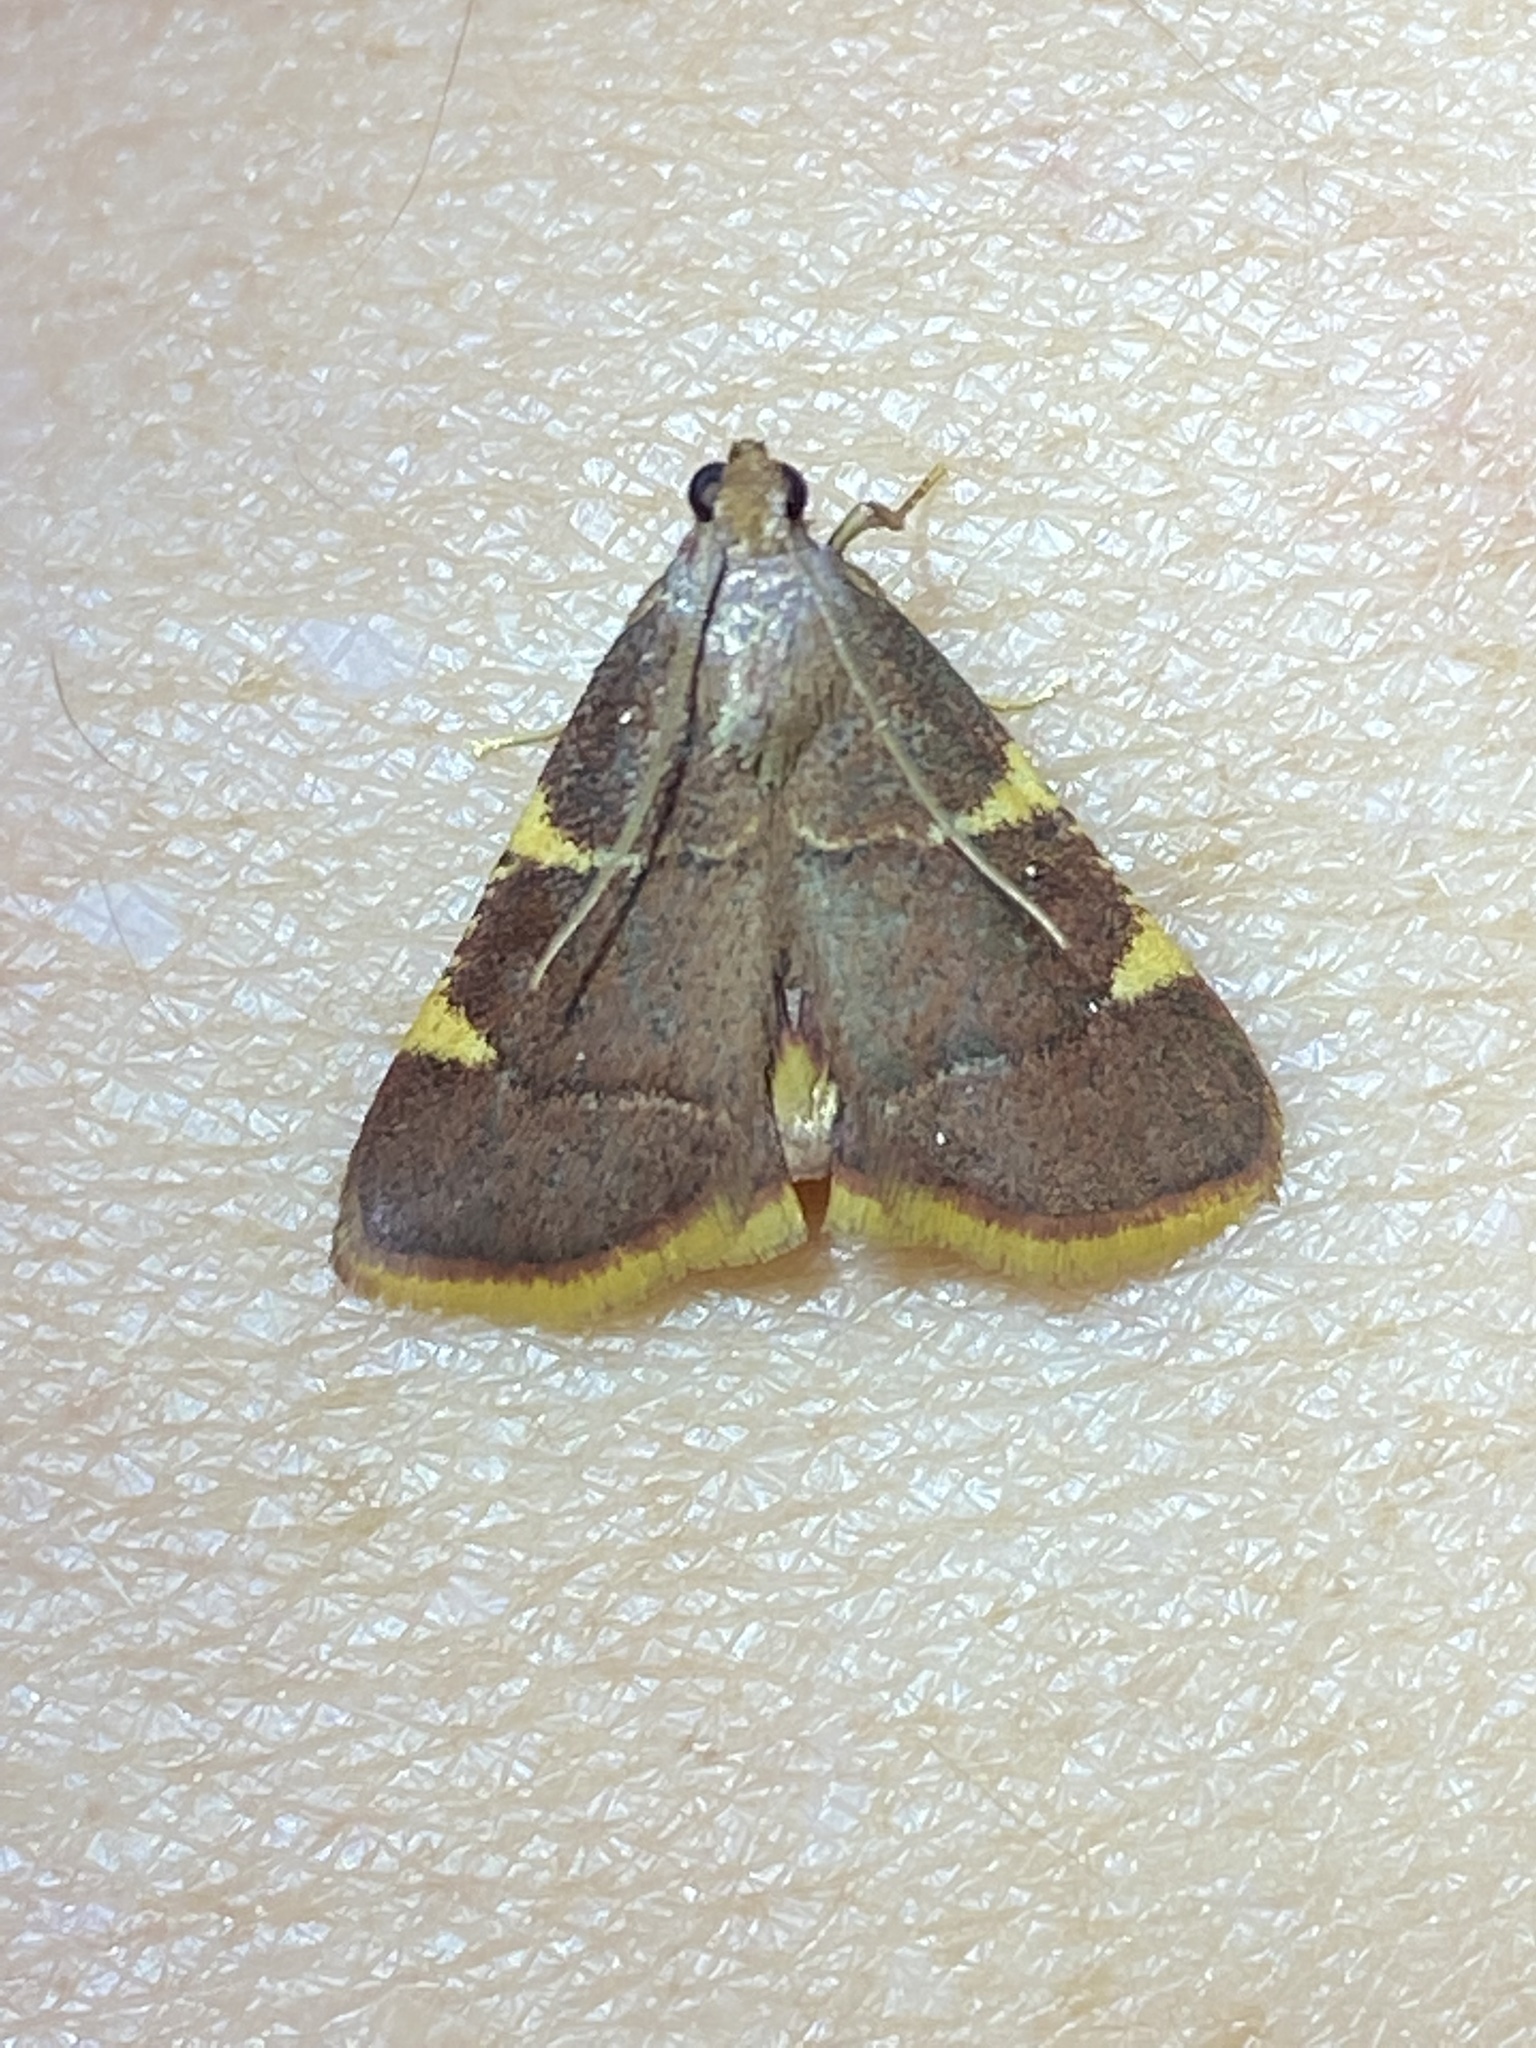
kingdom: Animalia
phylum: Arthropoda
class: Insecta
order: Lepidoptera
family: Pyralidae
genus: Hypsopygia
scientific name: Hypsopygia olinalis
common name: Yellow-fringed dolichomia moth
